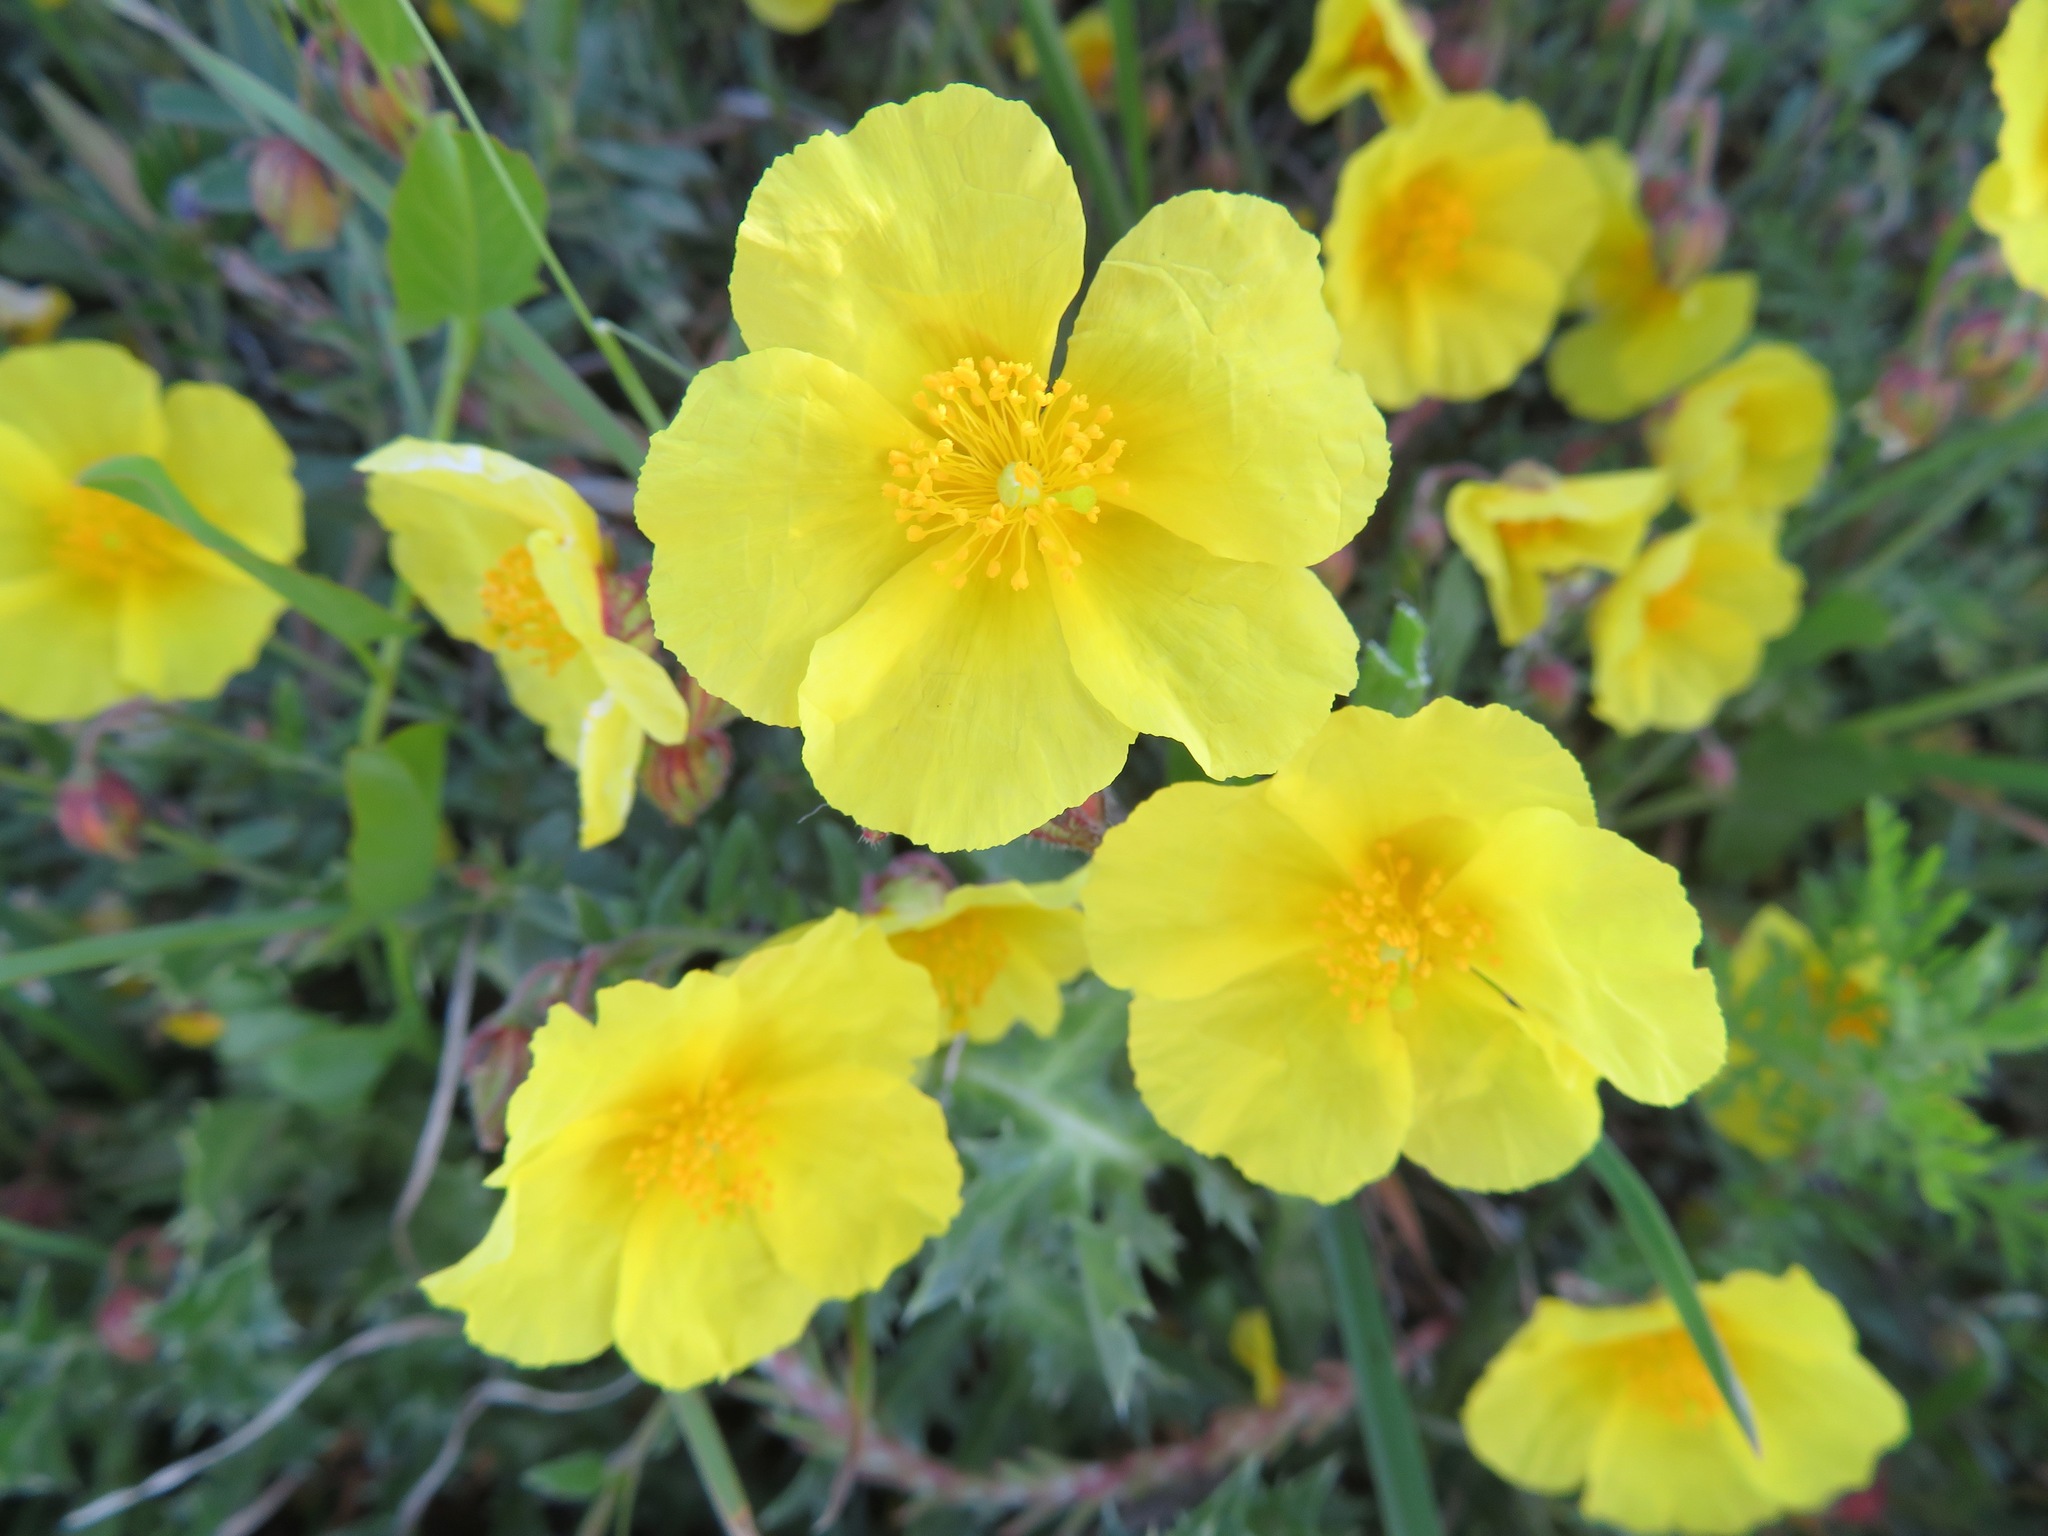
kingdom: Plantae
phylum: Tracheophyta
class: Magnoliopsida
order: Malvales
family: Cistaceae
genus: Helianthemum
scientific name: Helianthemum nummularium
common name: Common rock-rose
